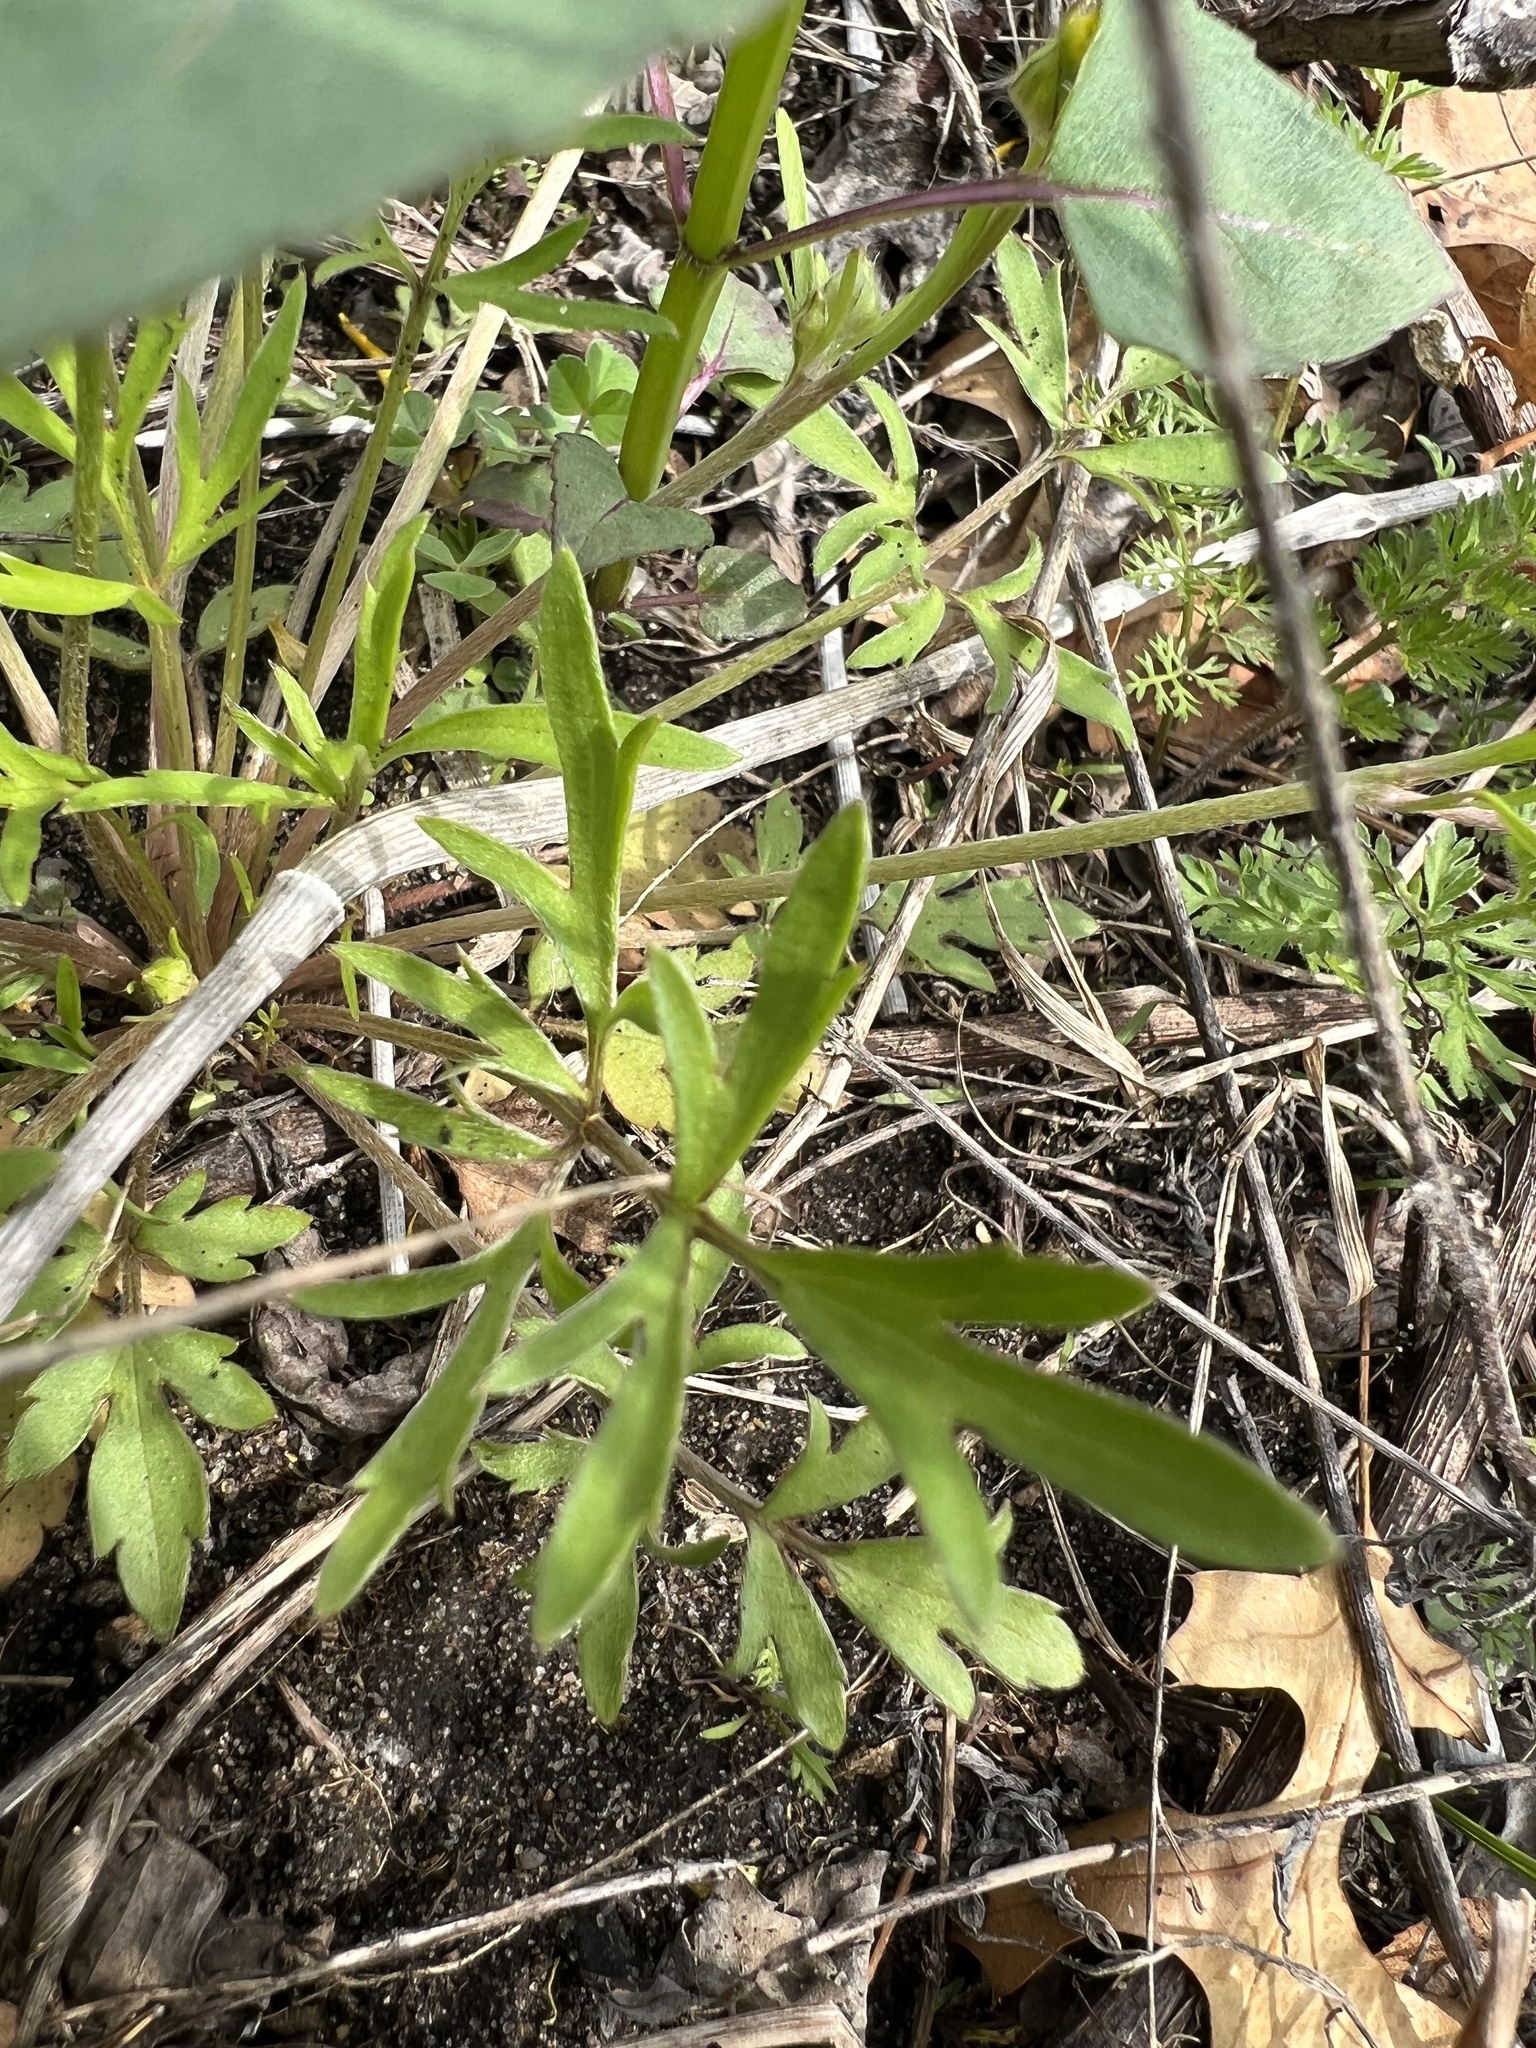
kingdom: Plantae
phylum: Tracheophyta
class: Magnoliopsida
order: Ranunculales
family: Ranunculaceae
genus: Ranunculus
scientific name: Ranunculus fascicularis
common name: Early buttercup
